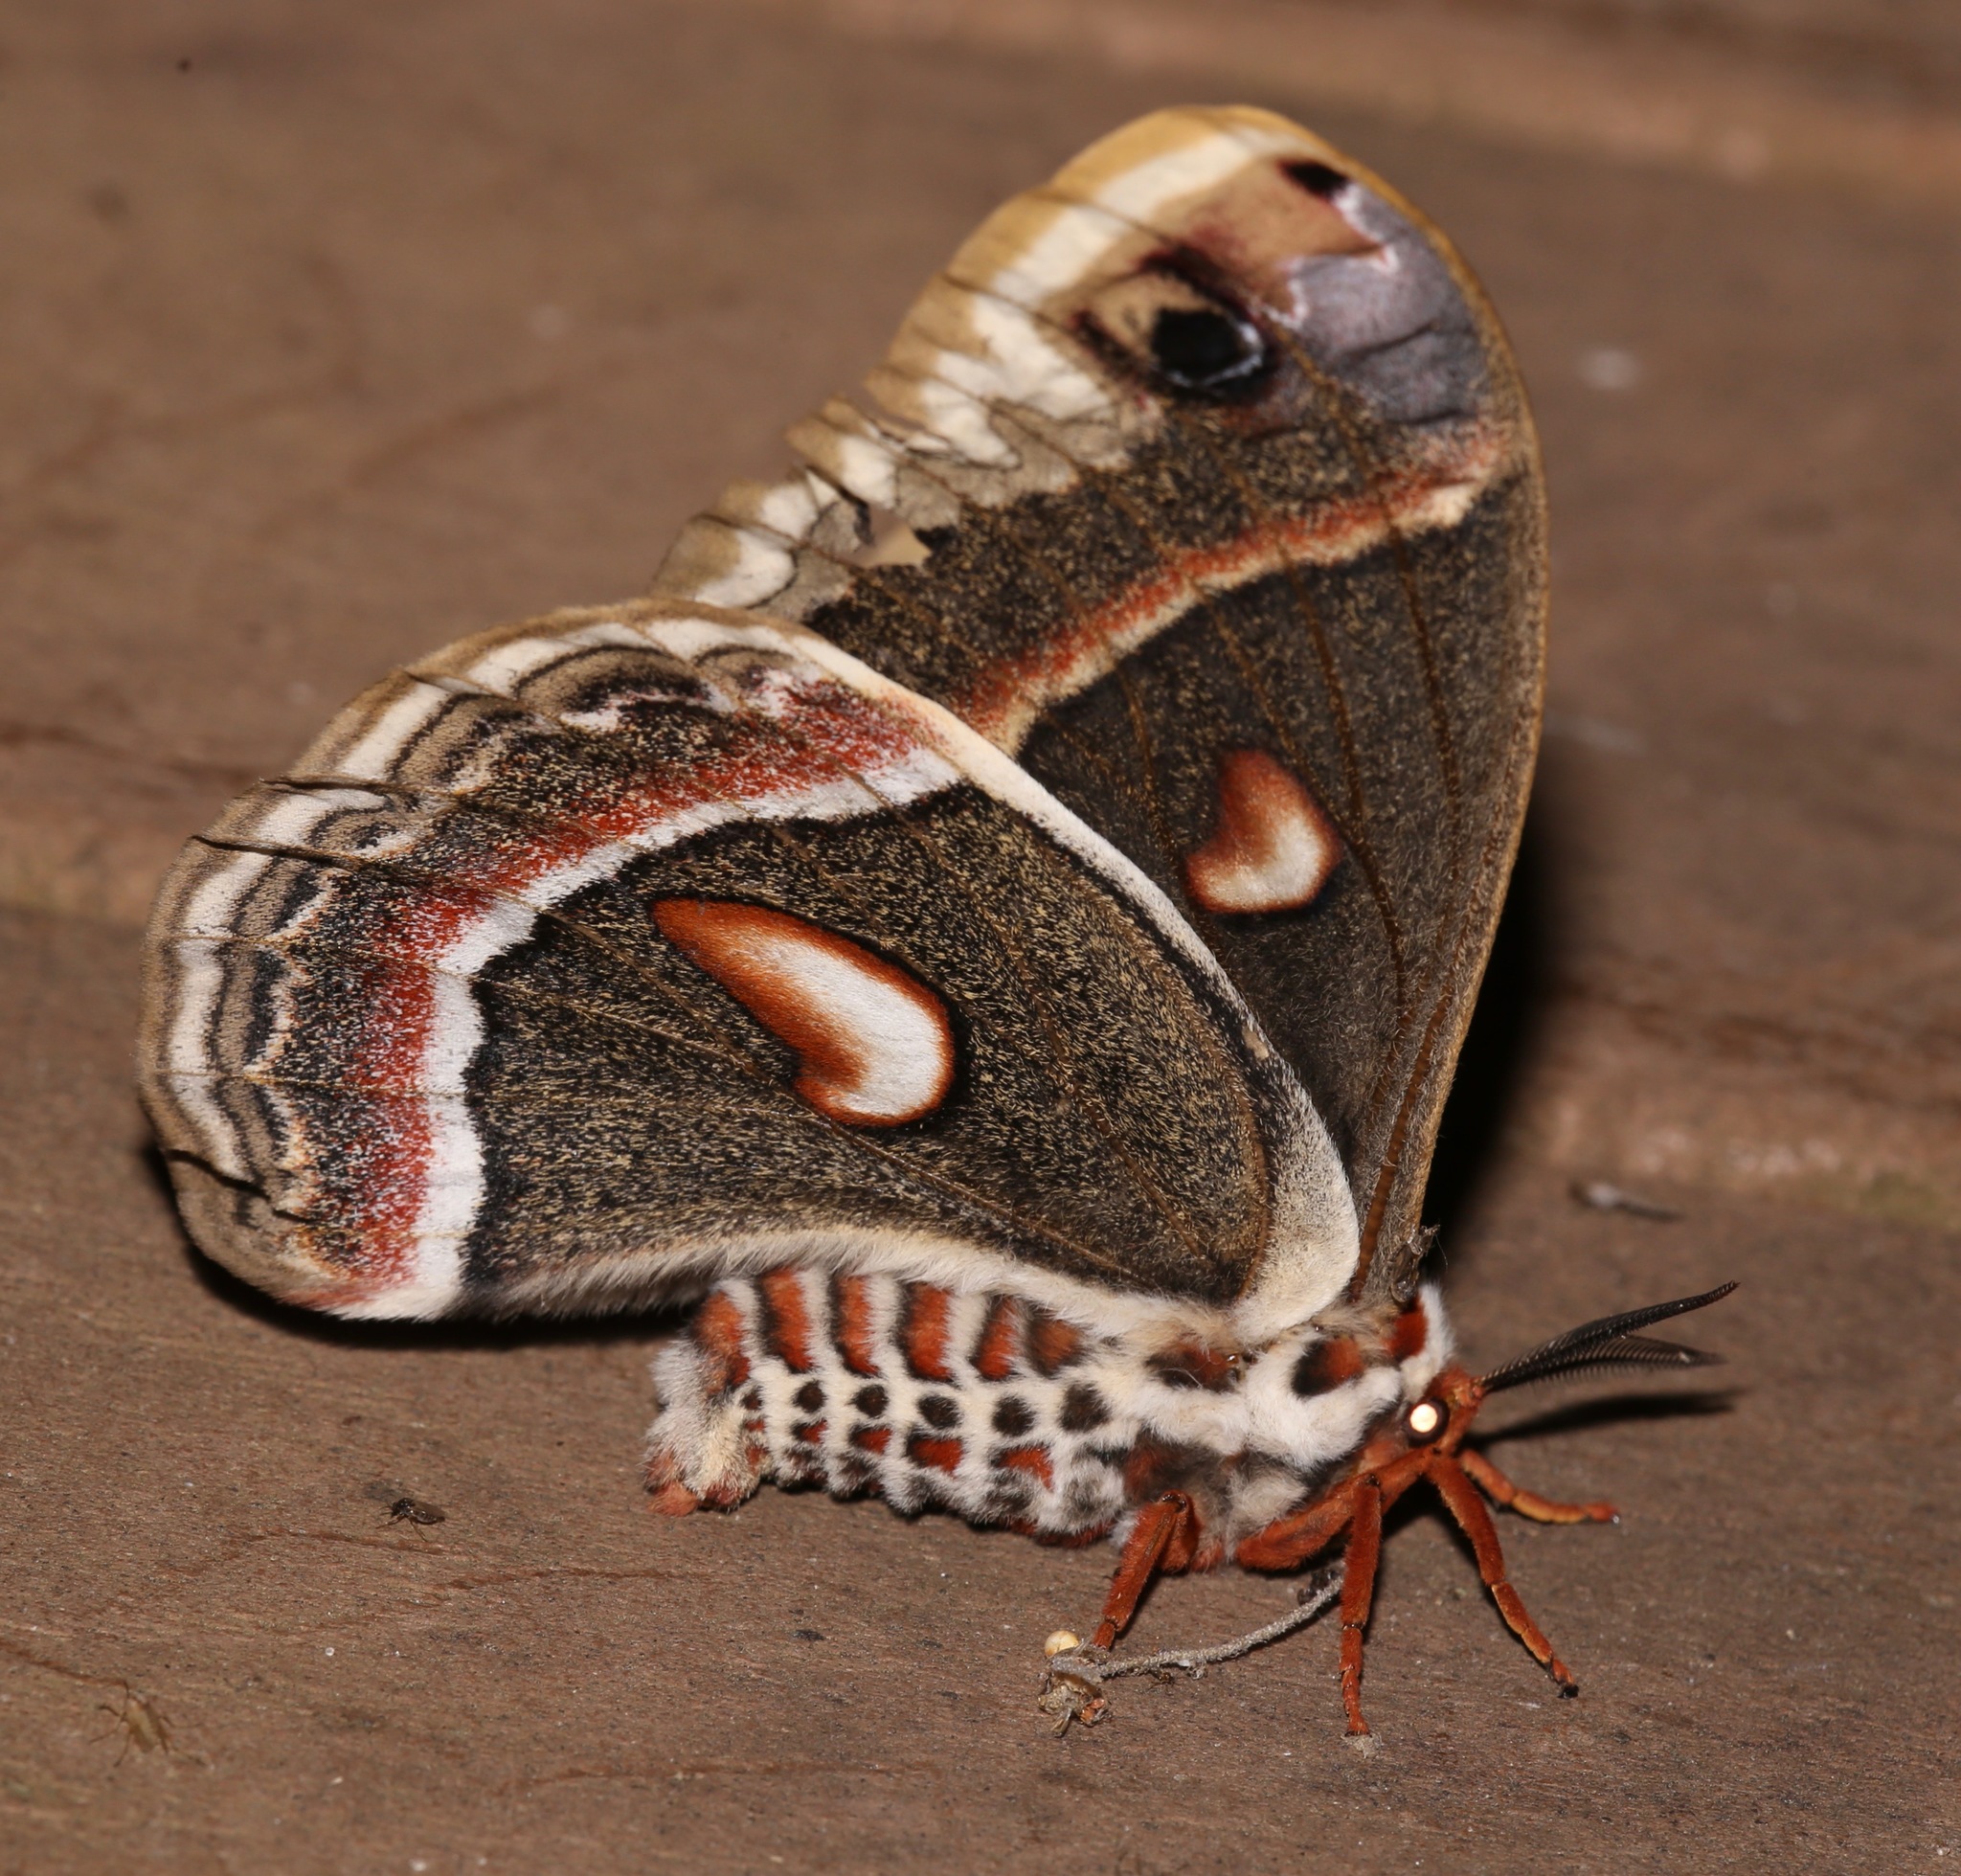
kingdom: Animalia
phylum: Arthropoda
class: Insecta
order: Lepidoptera
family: Saturniidae
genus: Hyalophora
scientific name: Hyalophora cecropia
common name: Cecropia silkmoth
